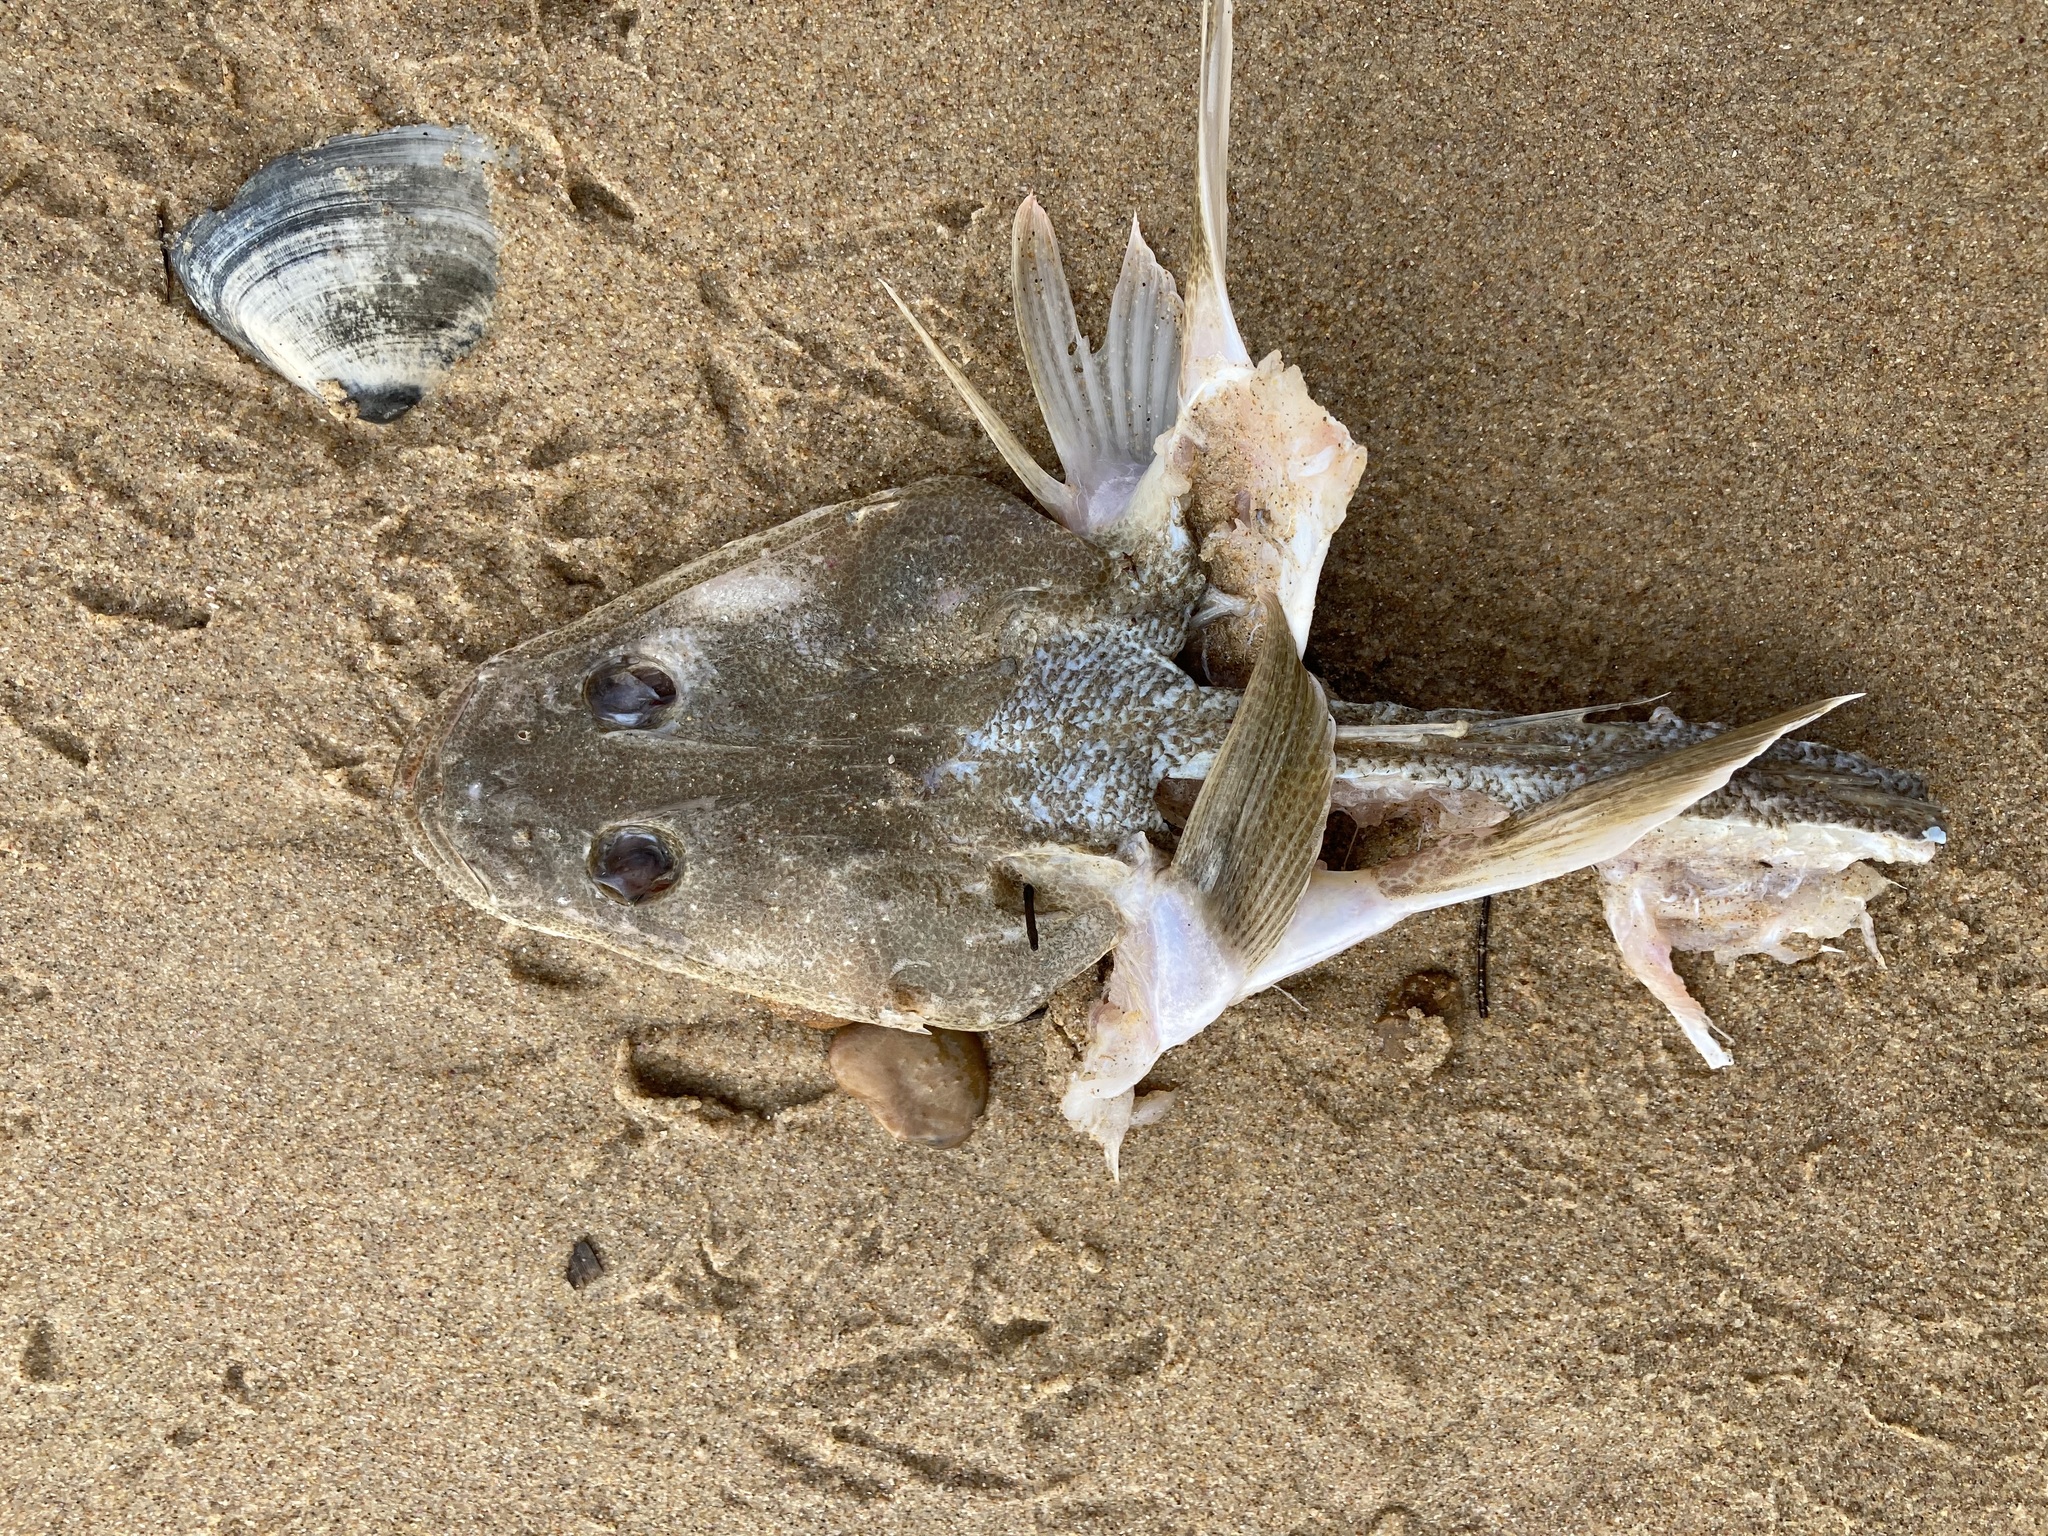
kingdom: Animalia
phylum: Chordata
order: Scorpaeniformes
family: Platycephalidae
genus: Platycephalus
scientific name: Platycephalus fuscus
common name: Dusky flathead
